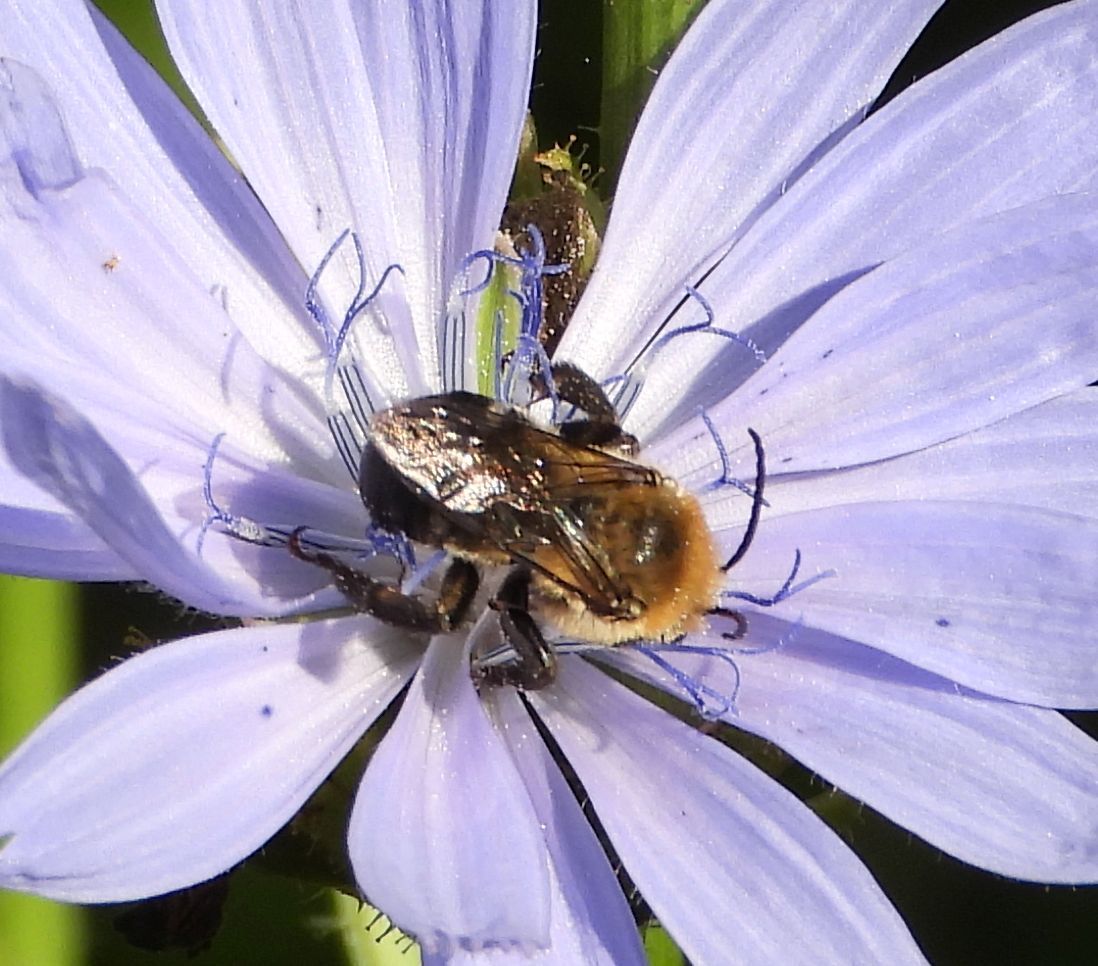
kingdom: Animalia
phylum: Arthropoda
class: Insecta
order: Hymenoptera
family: Apidae
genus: Melissodes
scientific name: Melissodes desponsus
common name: Thistle long-horned bee
